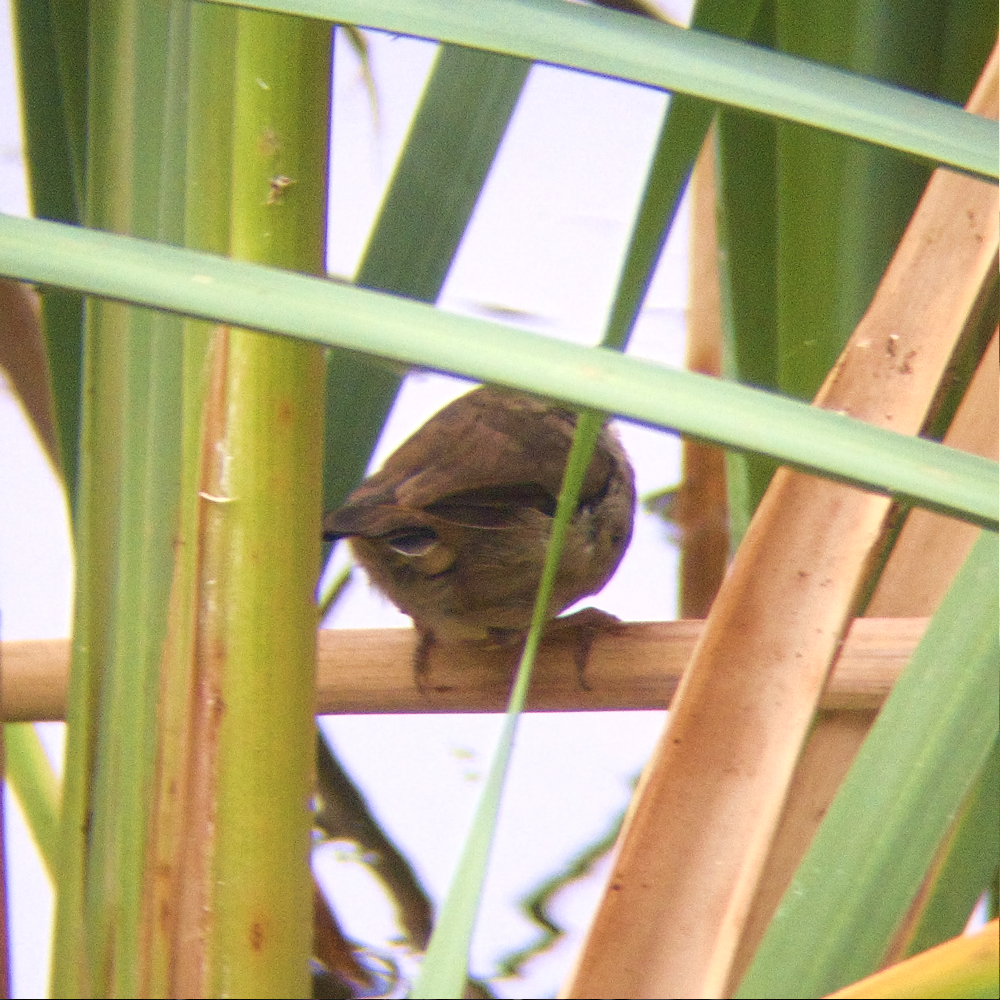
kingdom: Animalia
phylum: Chordata
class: Aves
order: Passeriformes
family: Acanthizidae
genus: Sericornis
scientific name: Sericornis frontalis
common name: White-browed scrubwren
